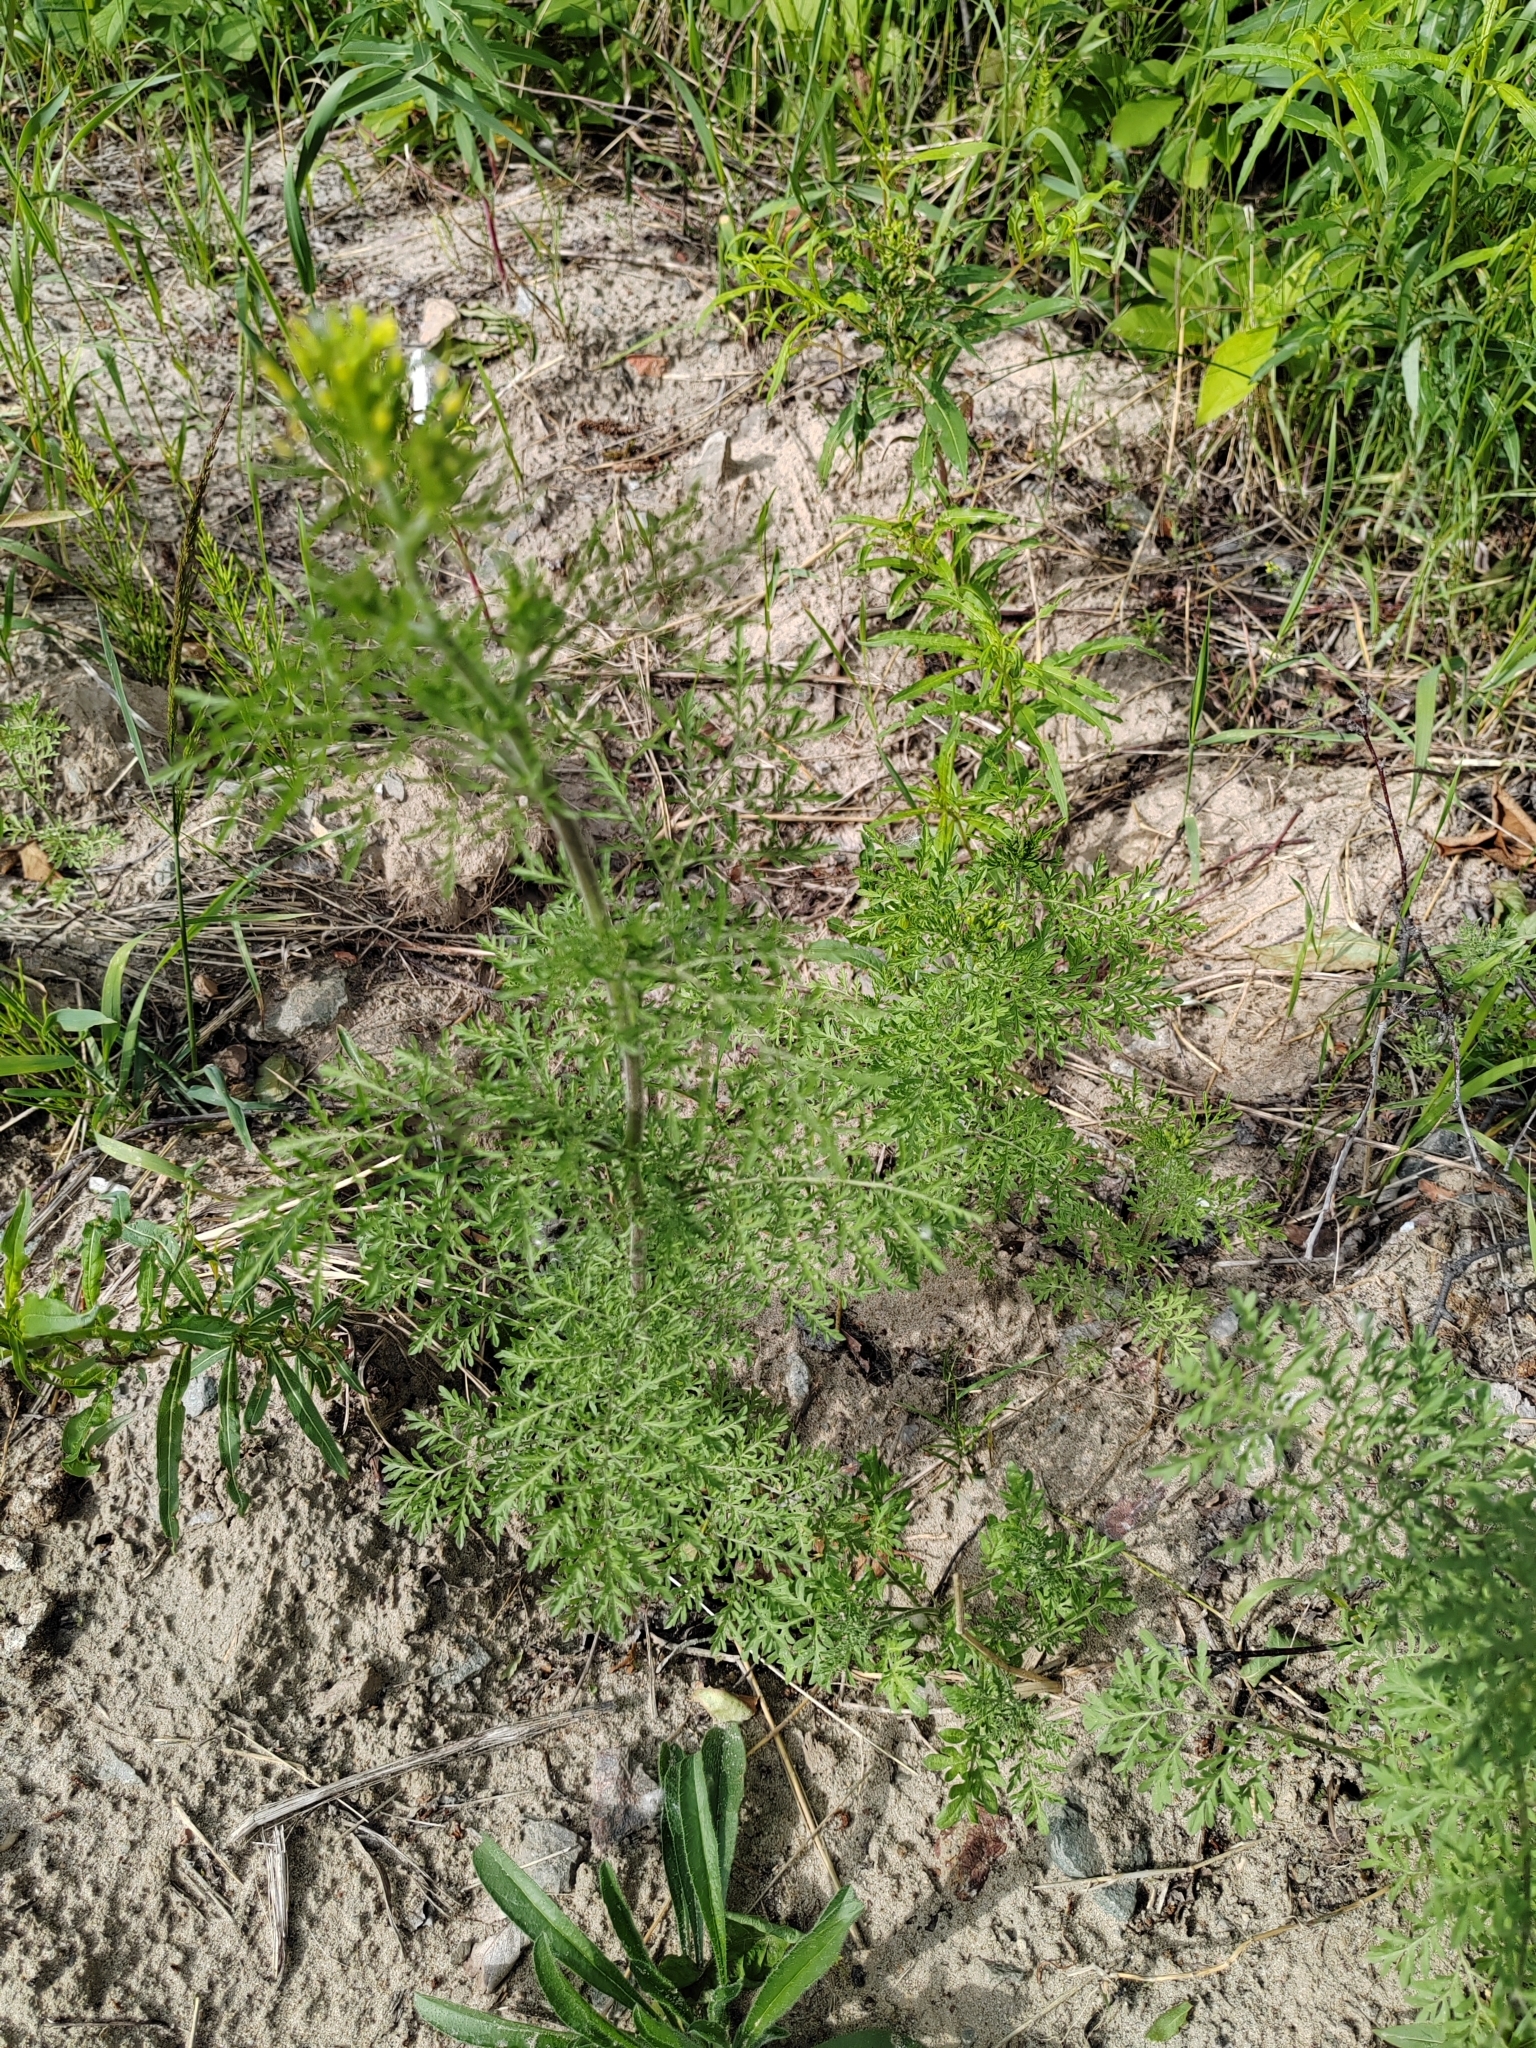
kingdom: Plantae
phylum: Tracheophyta
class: Magnoliopsida
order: Brassicales
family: Brassicaceae
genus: Descurainia
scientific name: Descurainia sophia
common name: Flixweed
